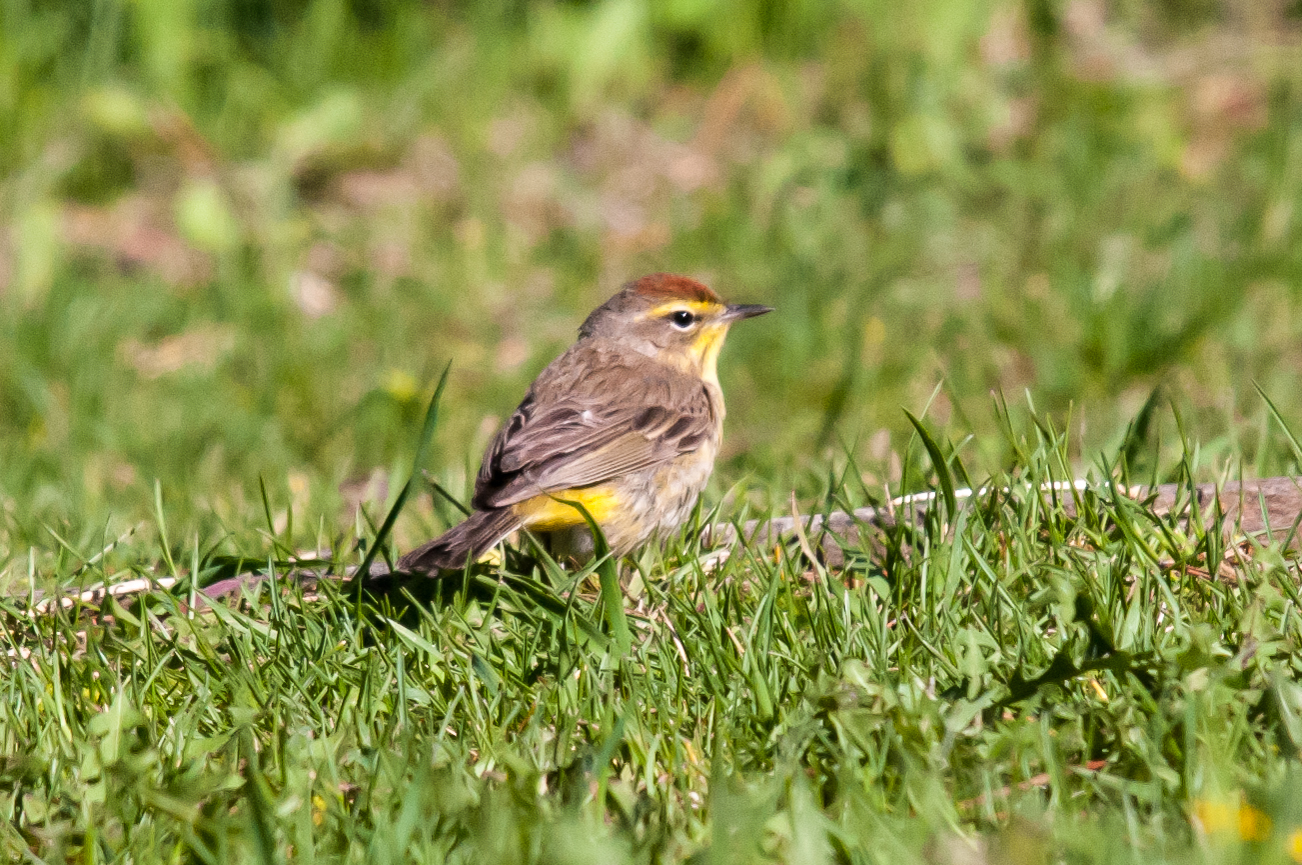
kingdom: Animalia
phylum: Chordata
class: Aves
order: Passeriformes
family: Parulidae
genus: Setophaga
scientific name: Setophaga palmarum
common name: Palm warbler
